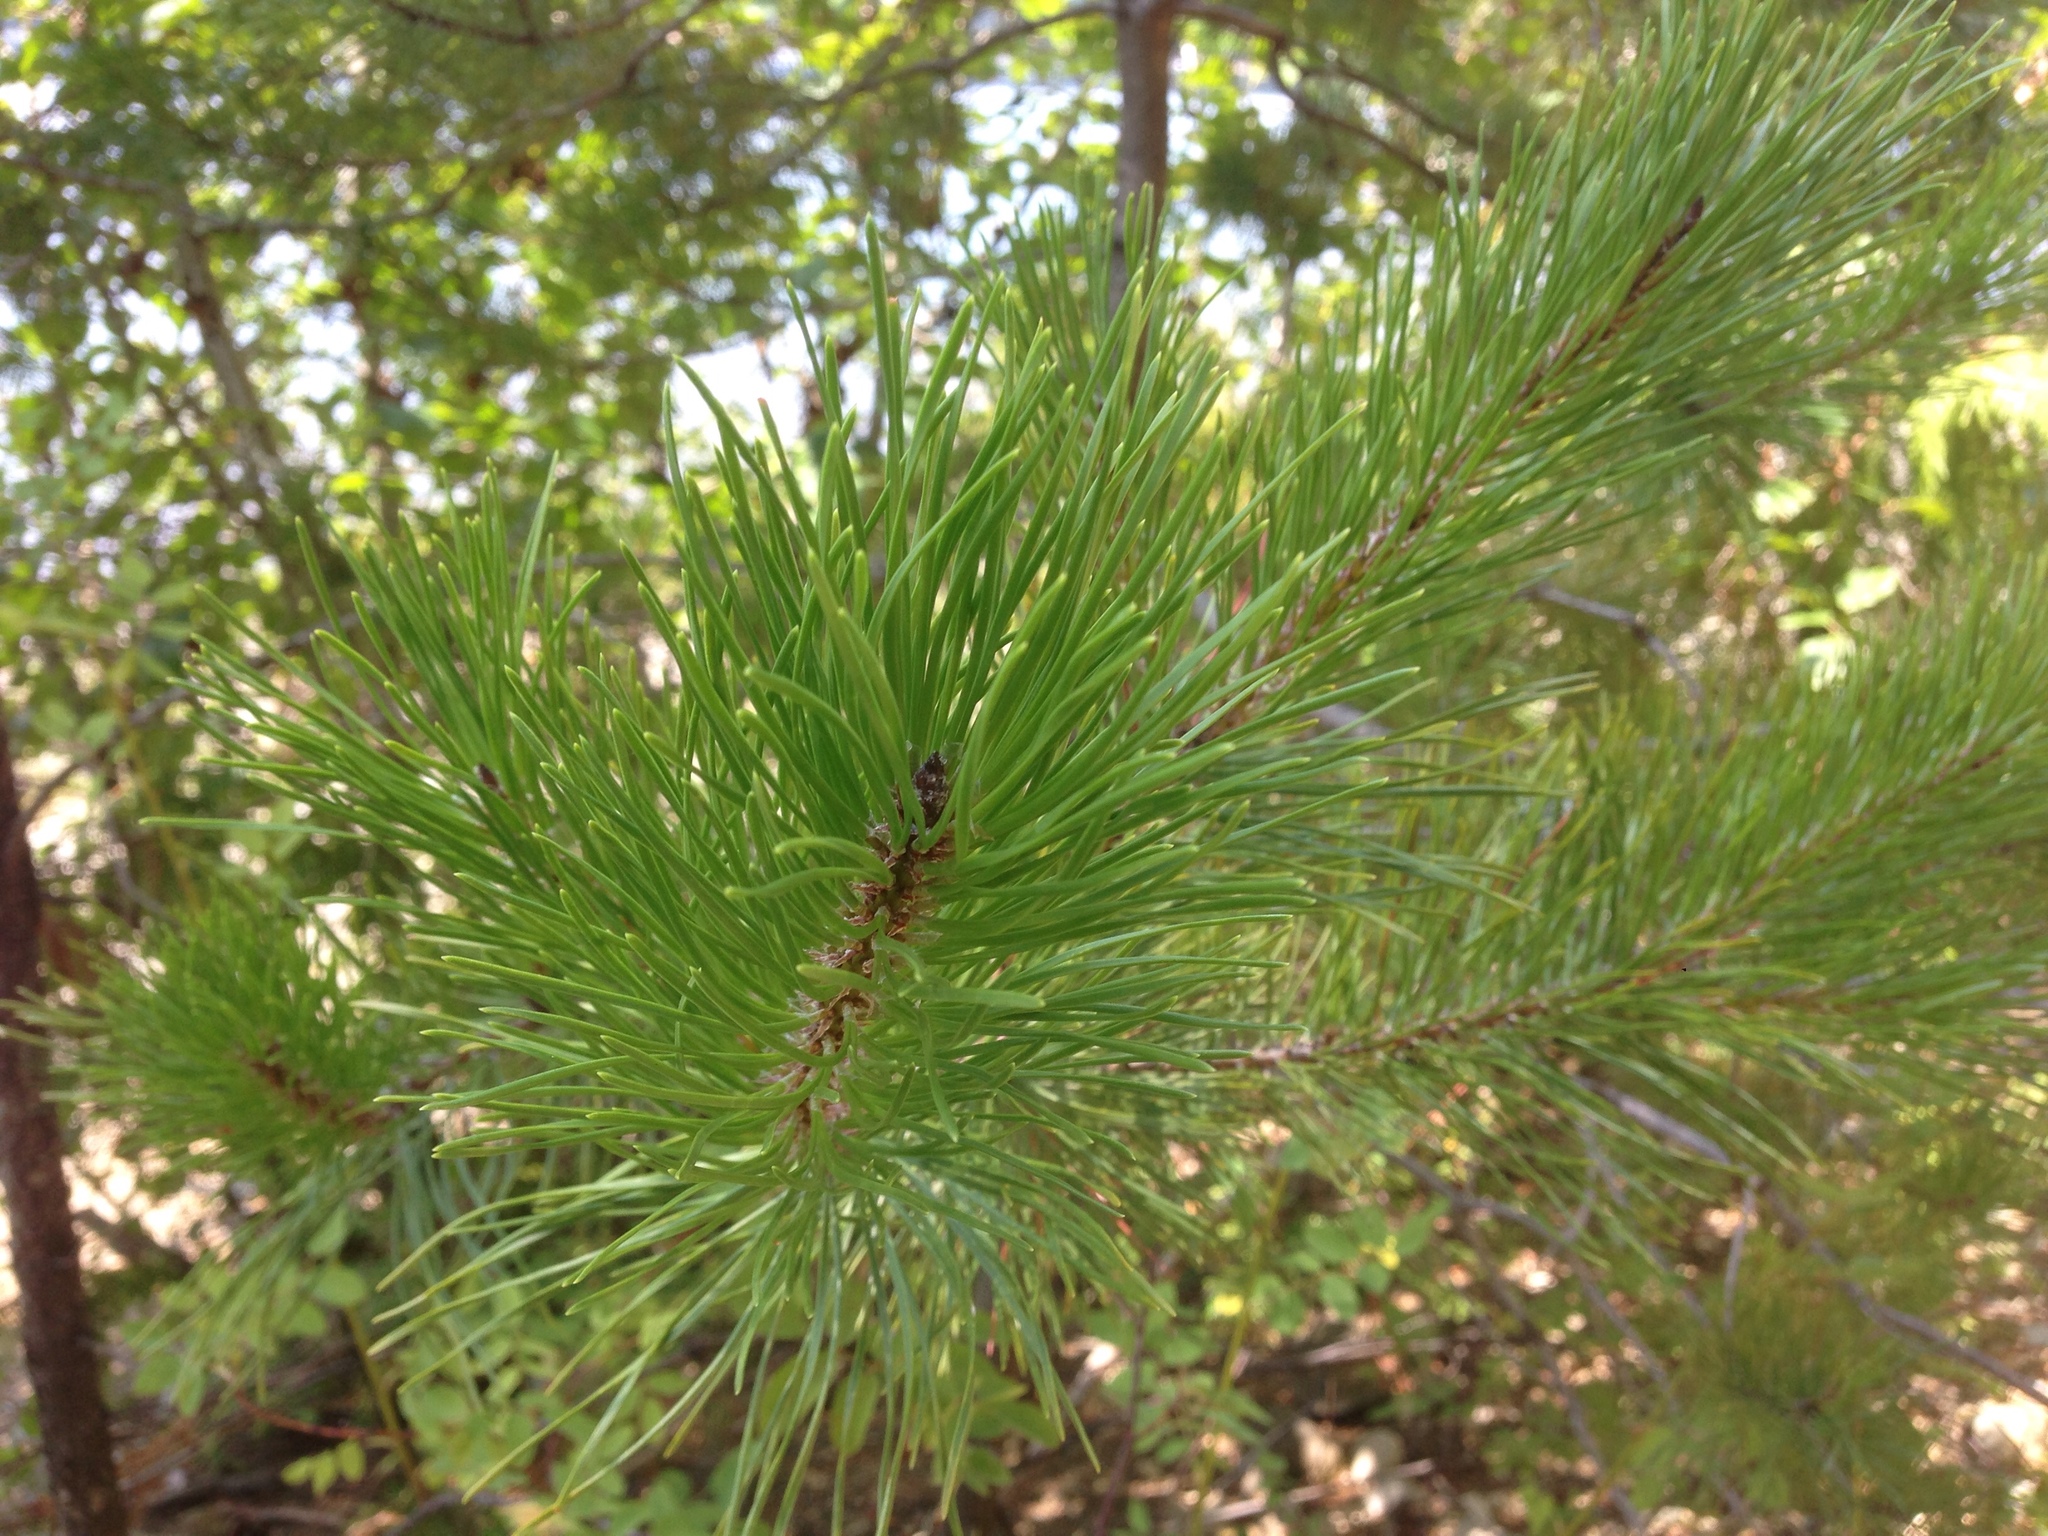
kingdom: Plantae
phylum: Tracheophyta
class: Pinopsida
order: Pinales
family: Pinaceae
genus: Pinus
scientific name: Pinus contorta
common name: Lodgepole pine
